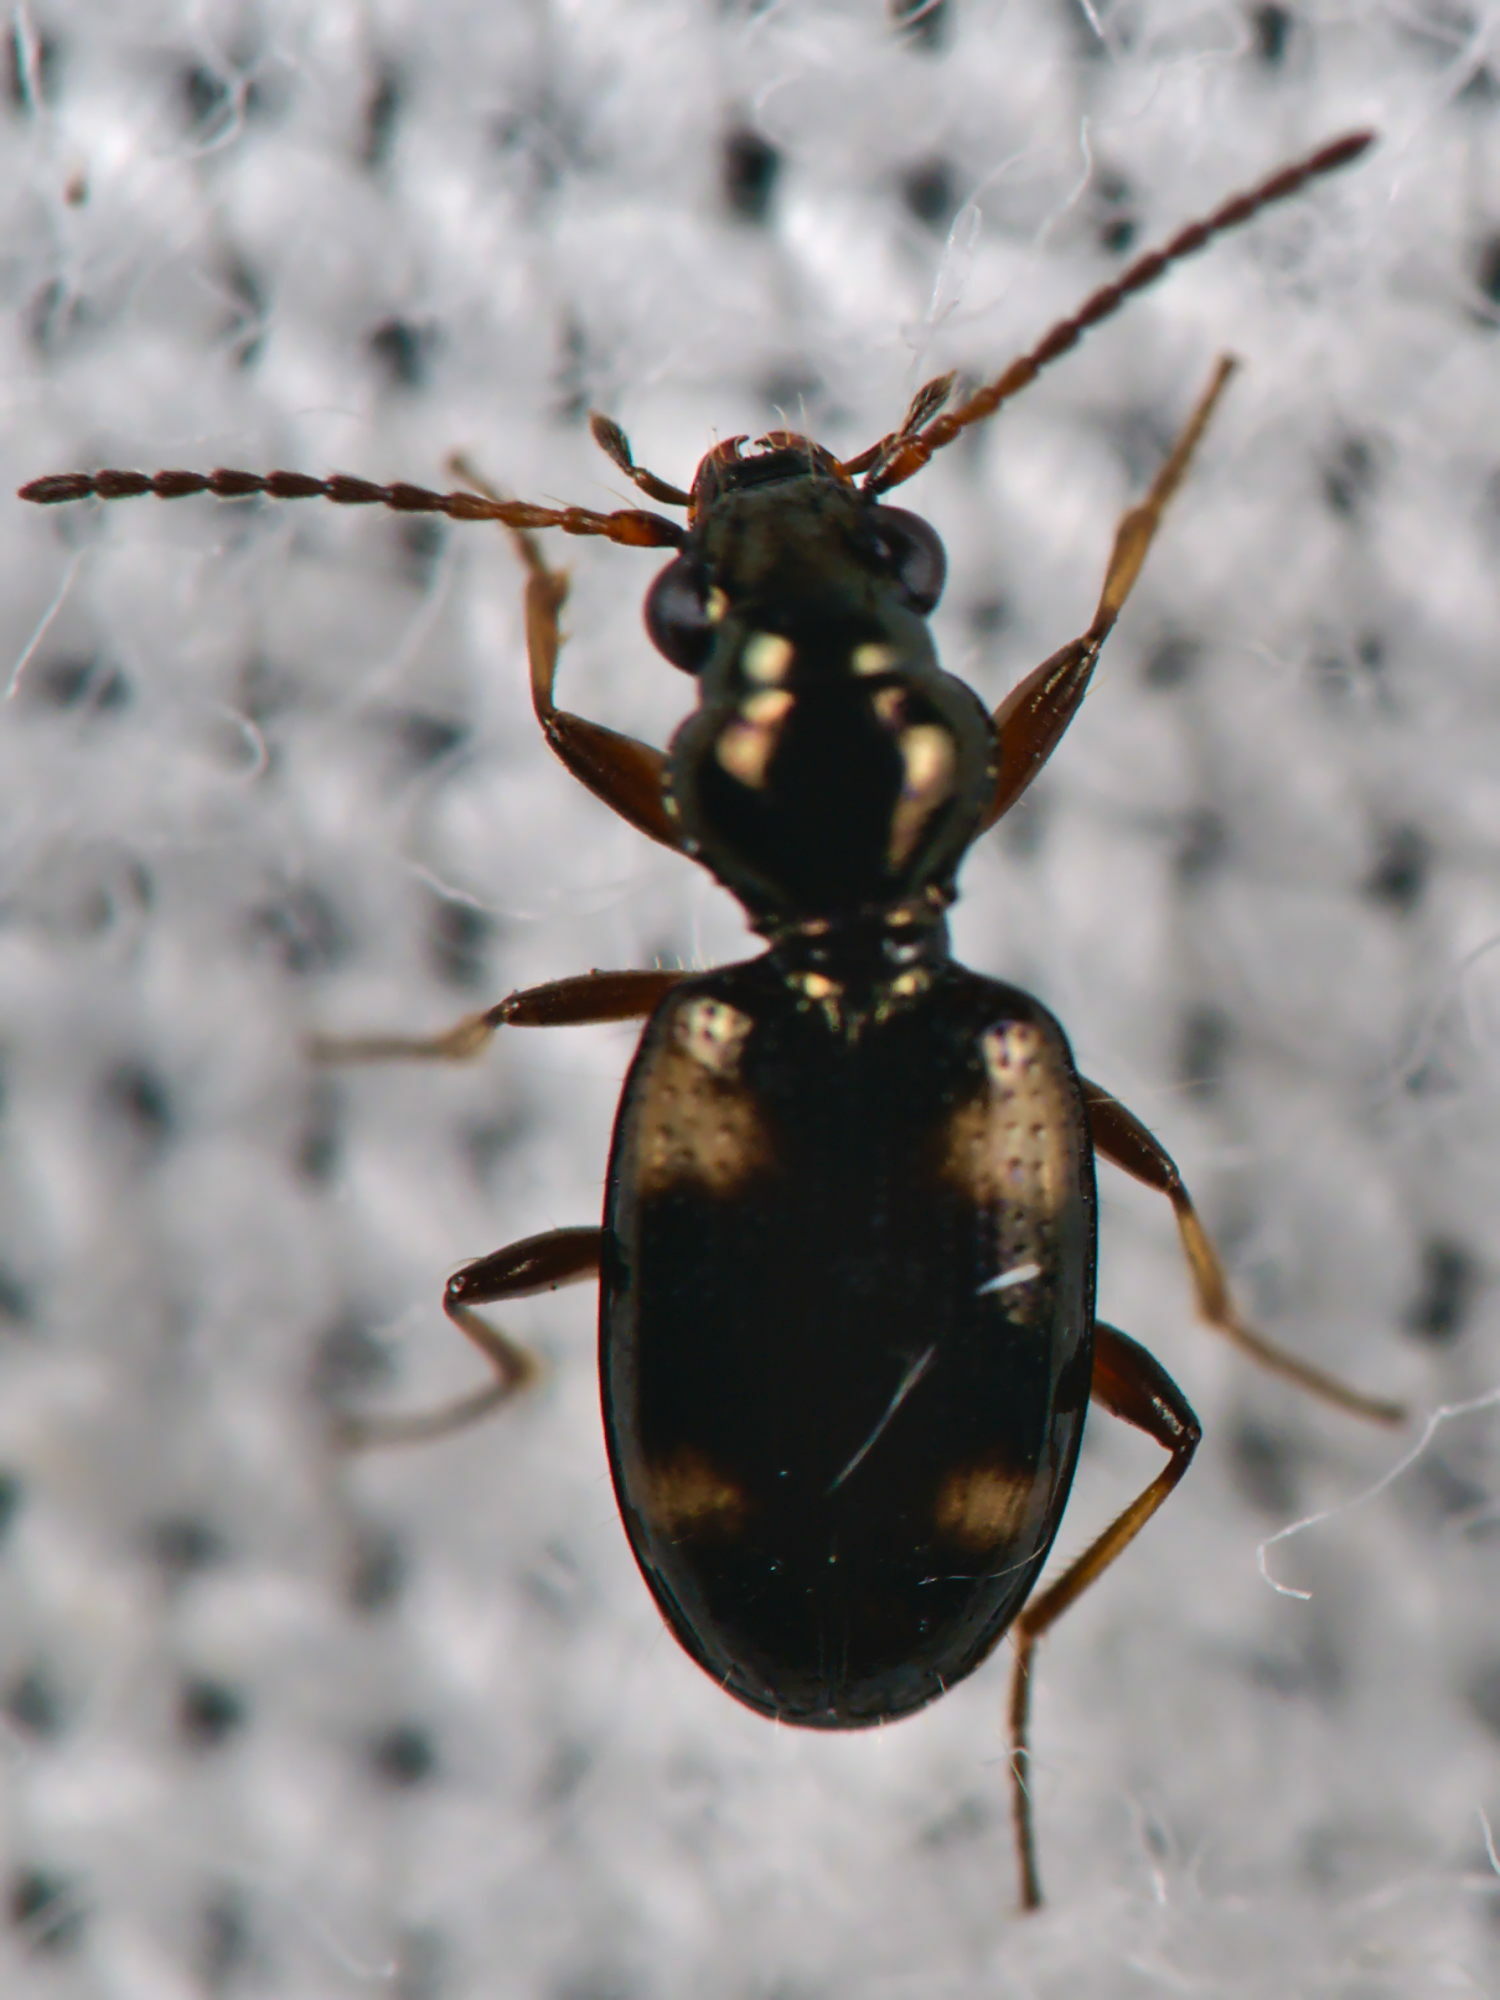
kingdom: Animalia
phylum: Arthropoda
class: Insecta
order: Coleoptera
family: Carabidae
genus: Bembidion
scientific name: Bembidion quadrimaculatum
